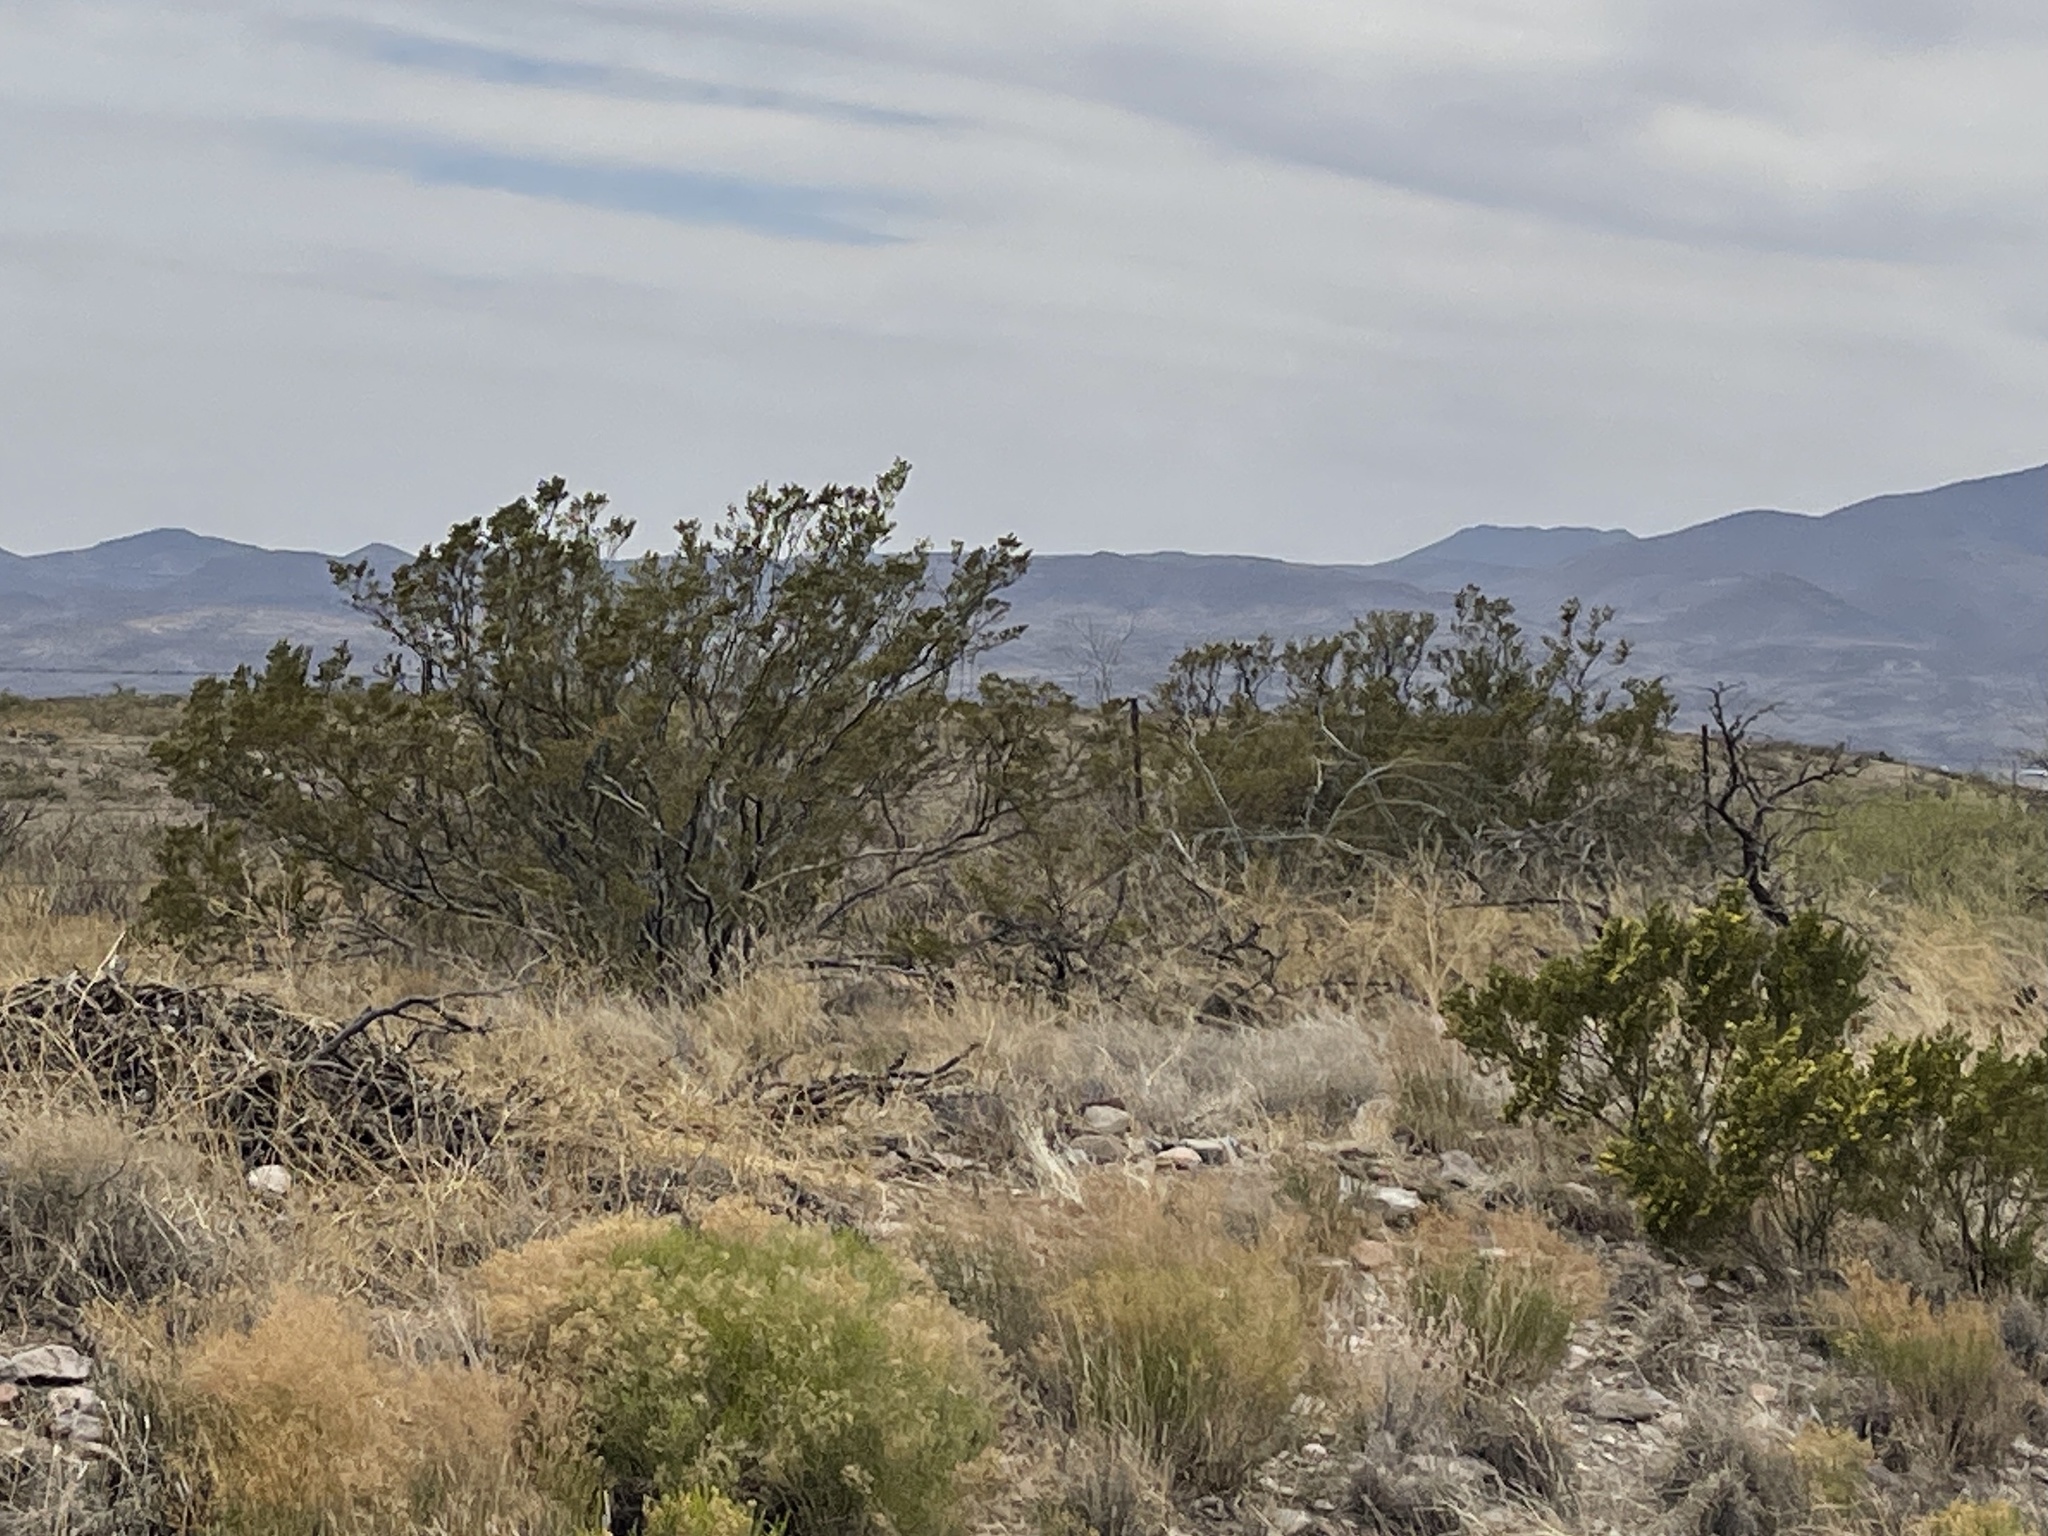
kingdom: Plantae
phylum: Tracheophyta
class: Magnoliopsida
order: Zygophyllales
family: Zygophyllaceae
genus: Larrea
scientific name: Larrea tridentata
